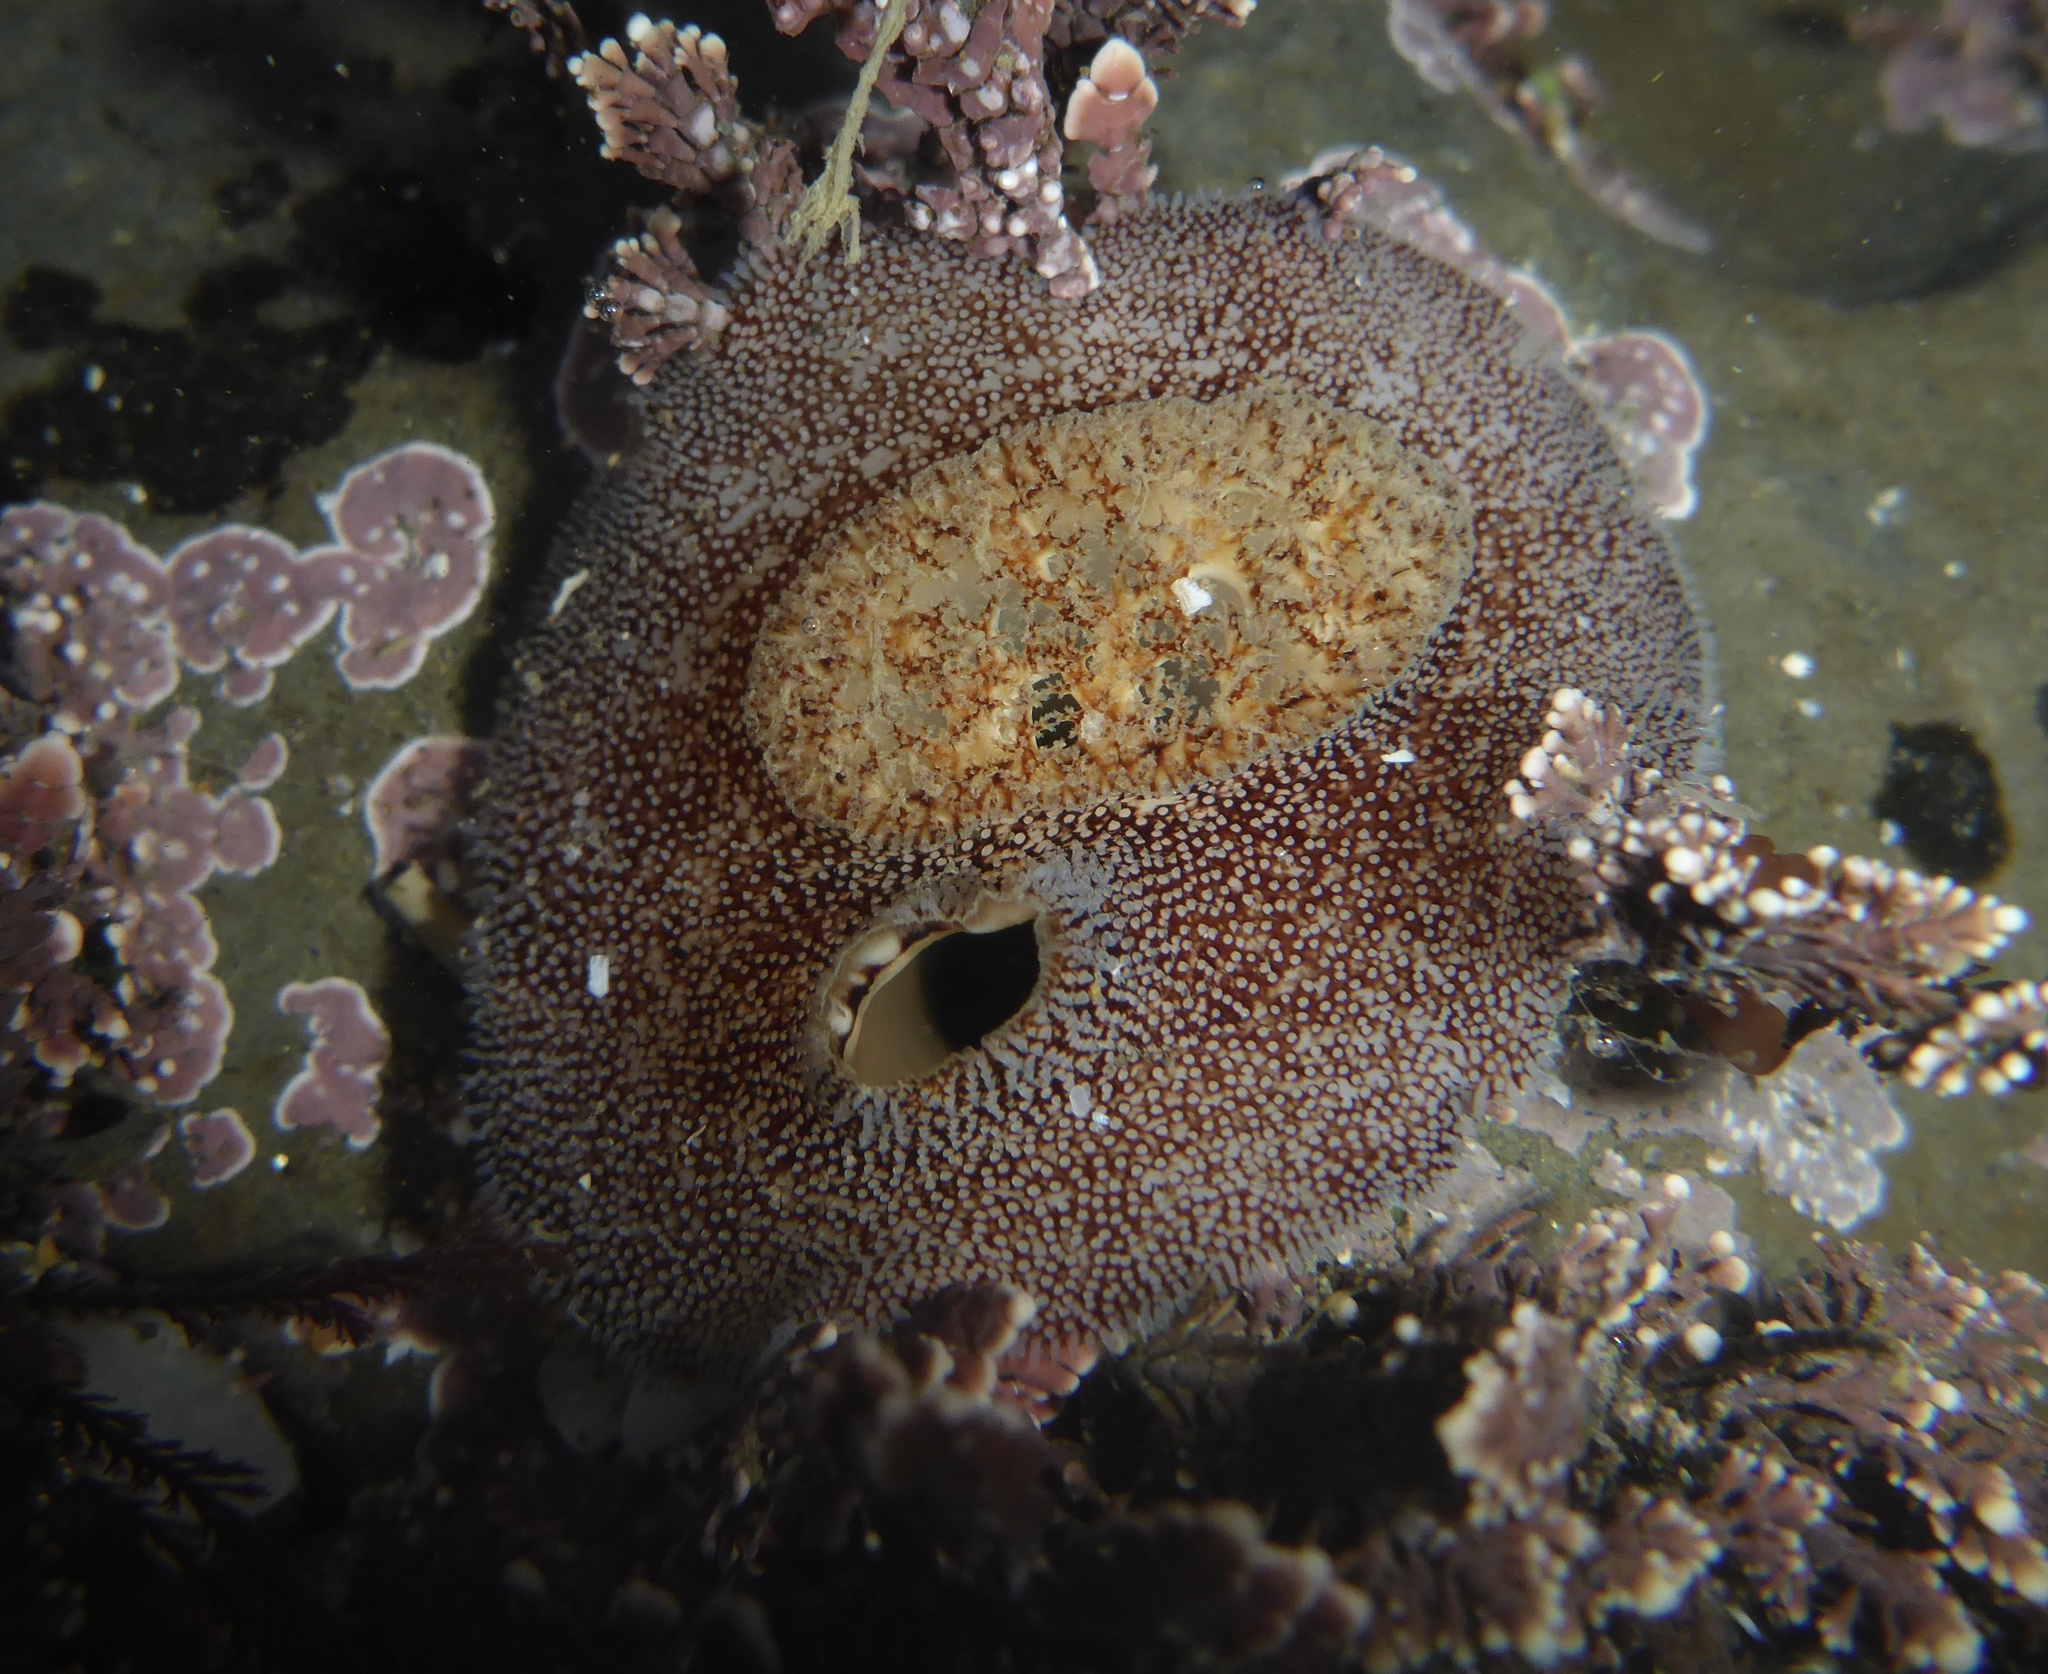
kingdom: Animalia
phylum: Mollusca
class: Bivalvia
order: Myida
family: Pholadidae
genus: Parapholas
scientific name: Parapholas californica
